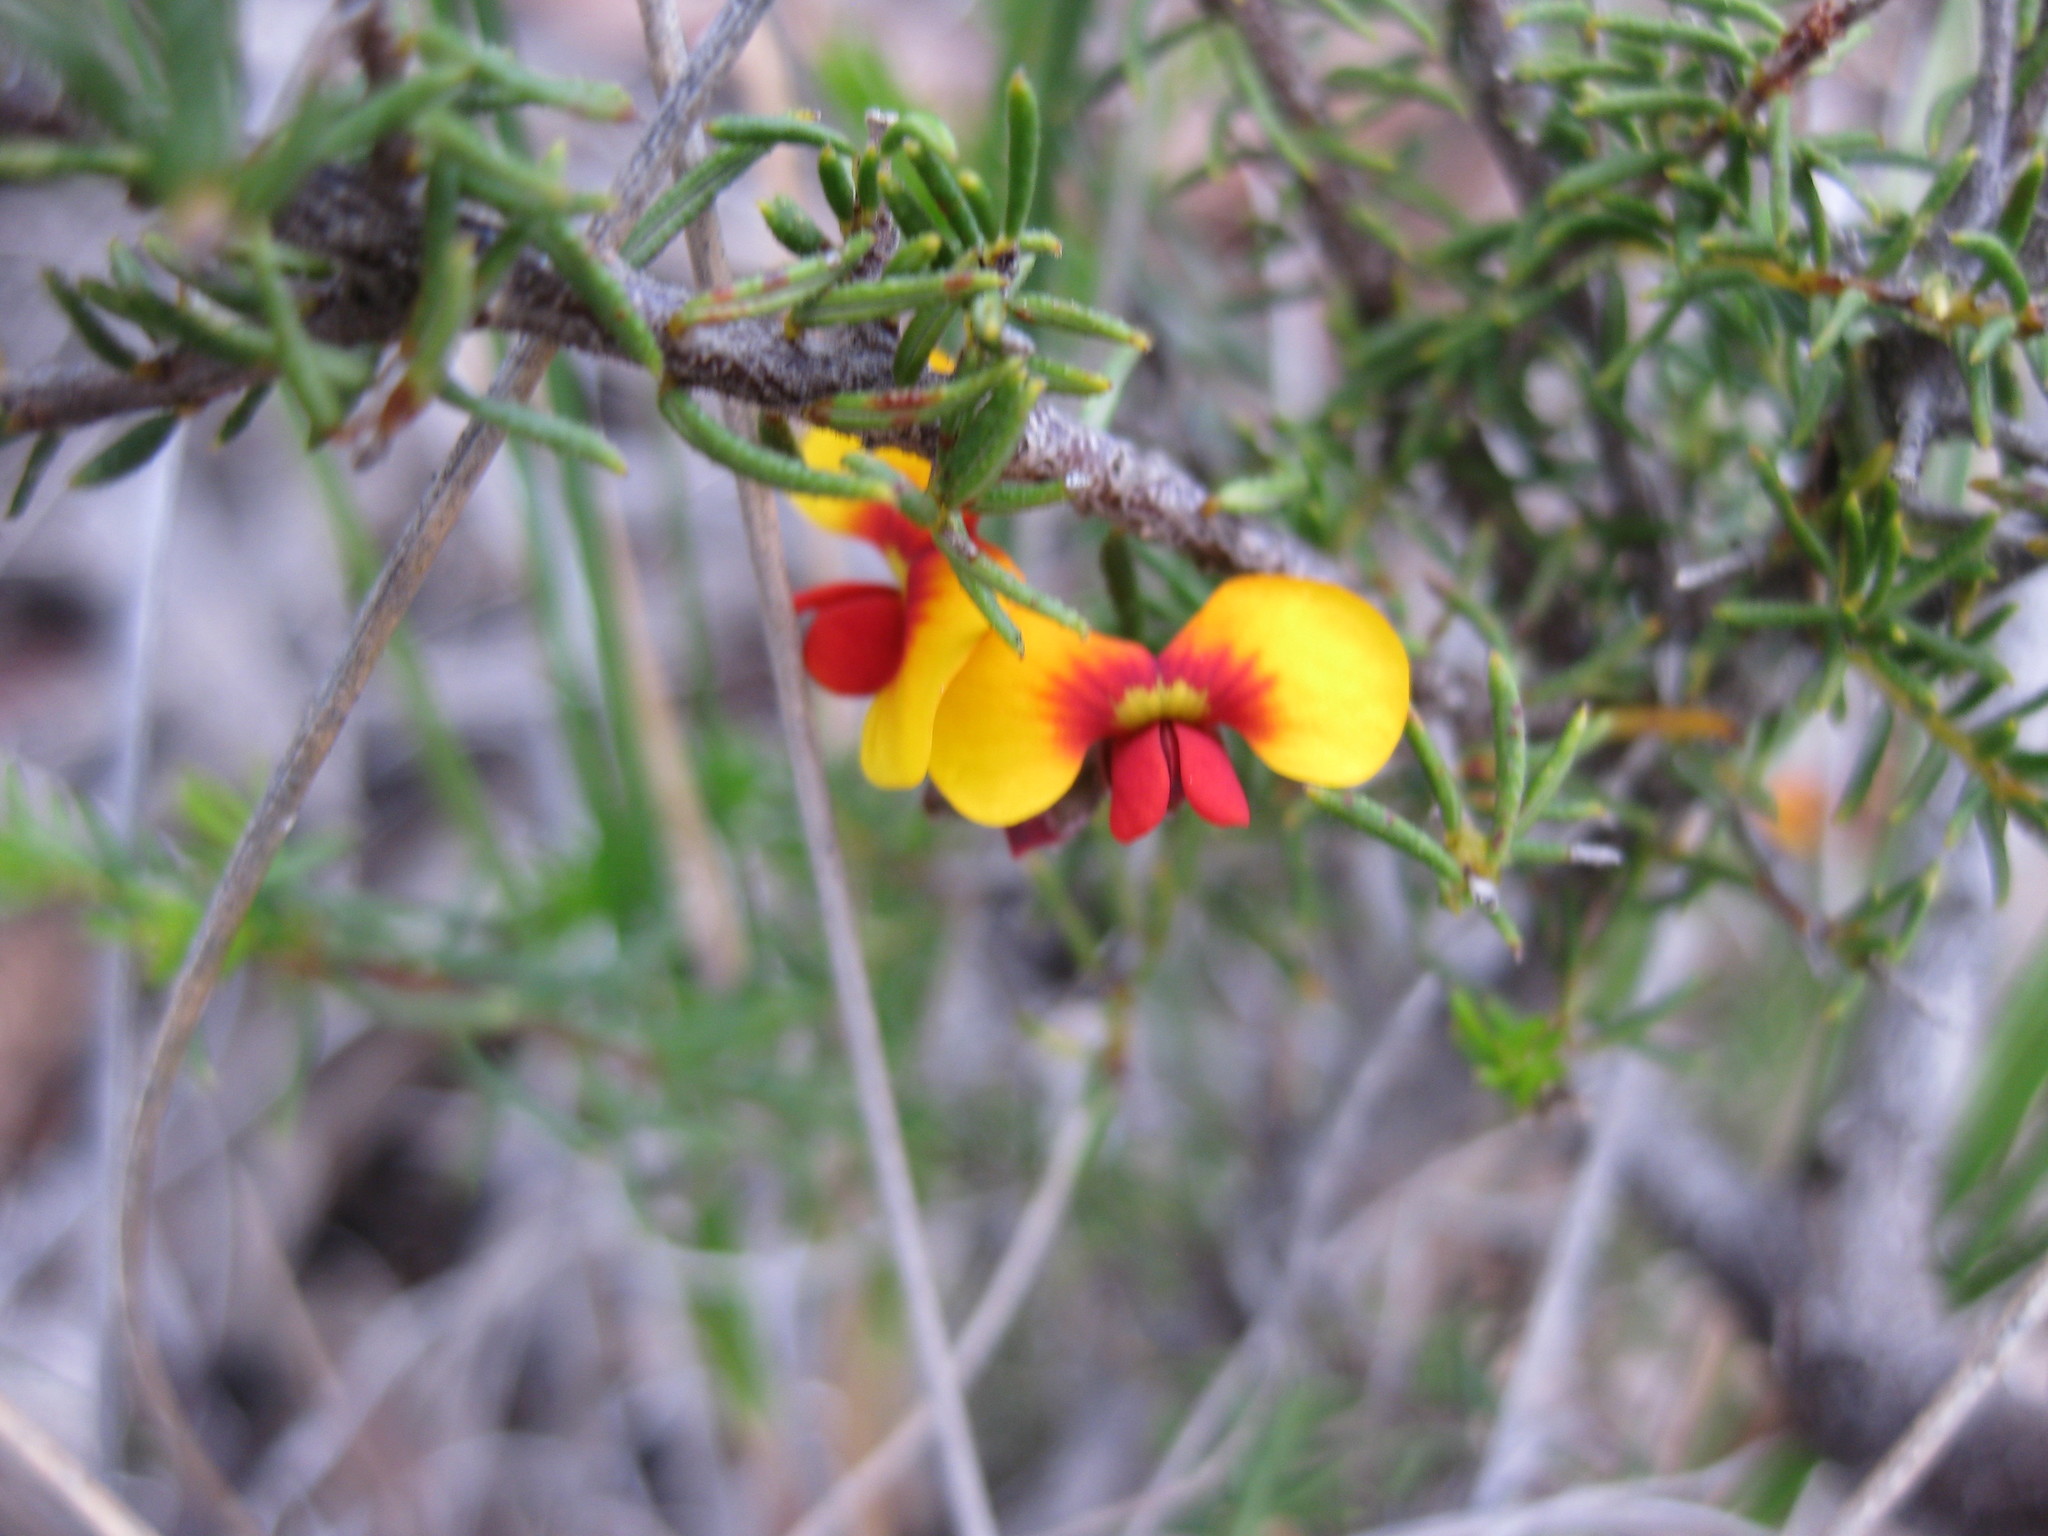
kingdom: Plantae
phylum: Tracheophyta
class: Magnoliopsida
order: Fabales
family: Fabaceae
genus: Dillwynia
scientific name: Dillwynia phylicoides
